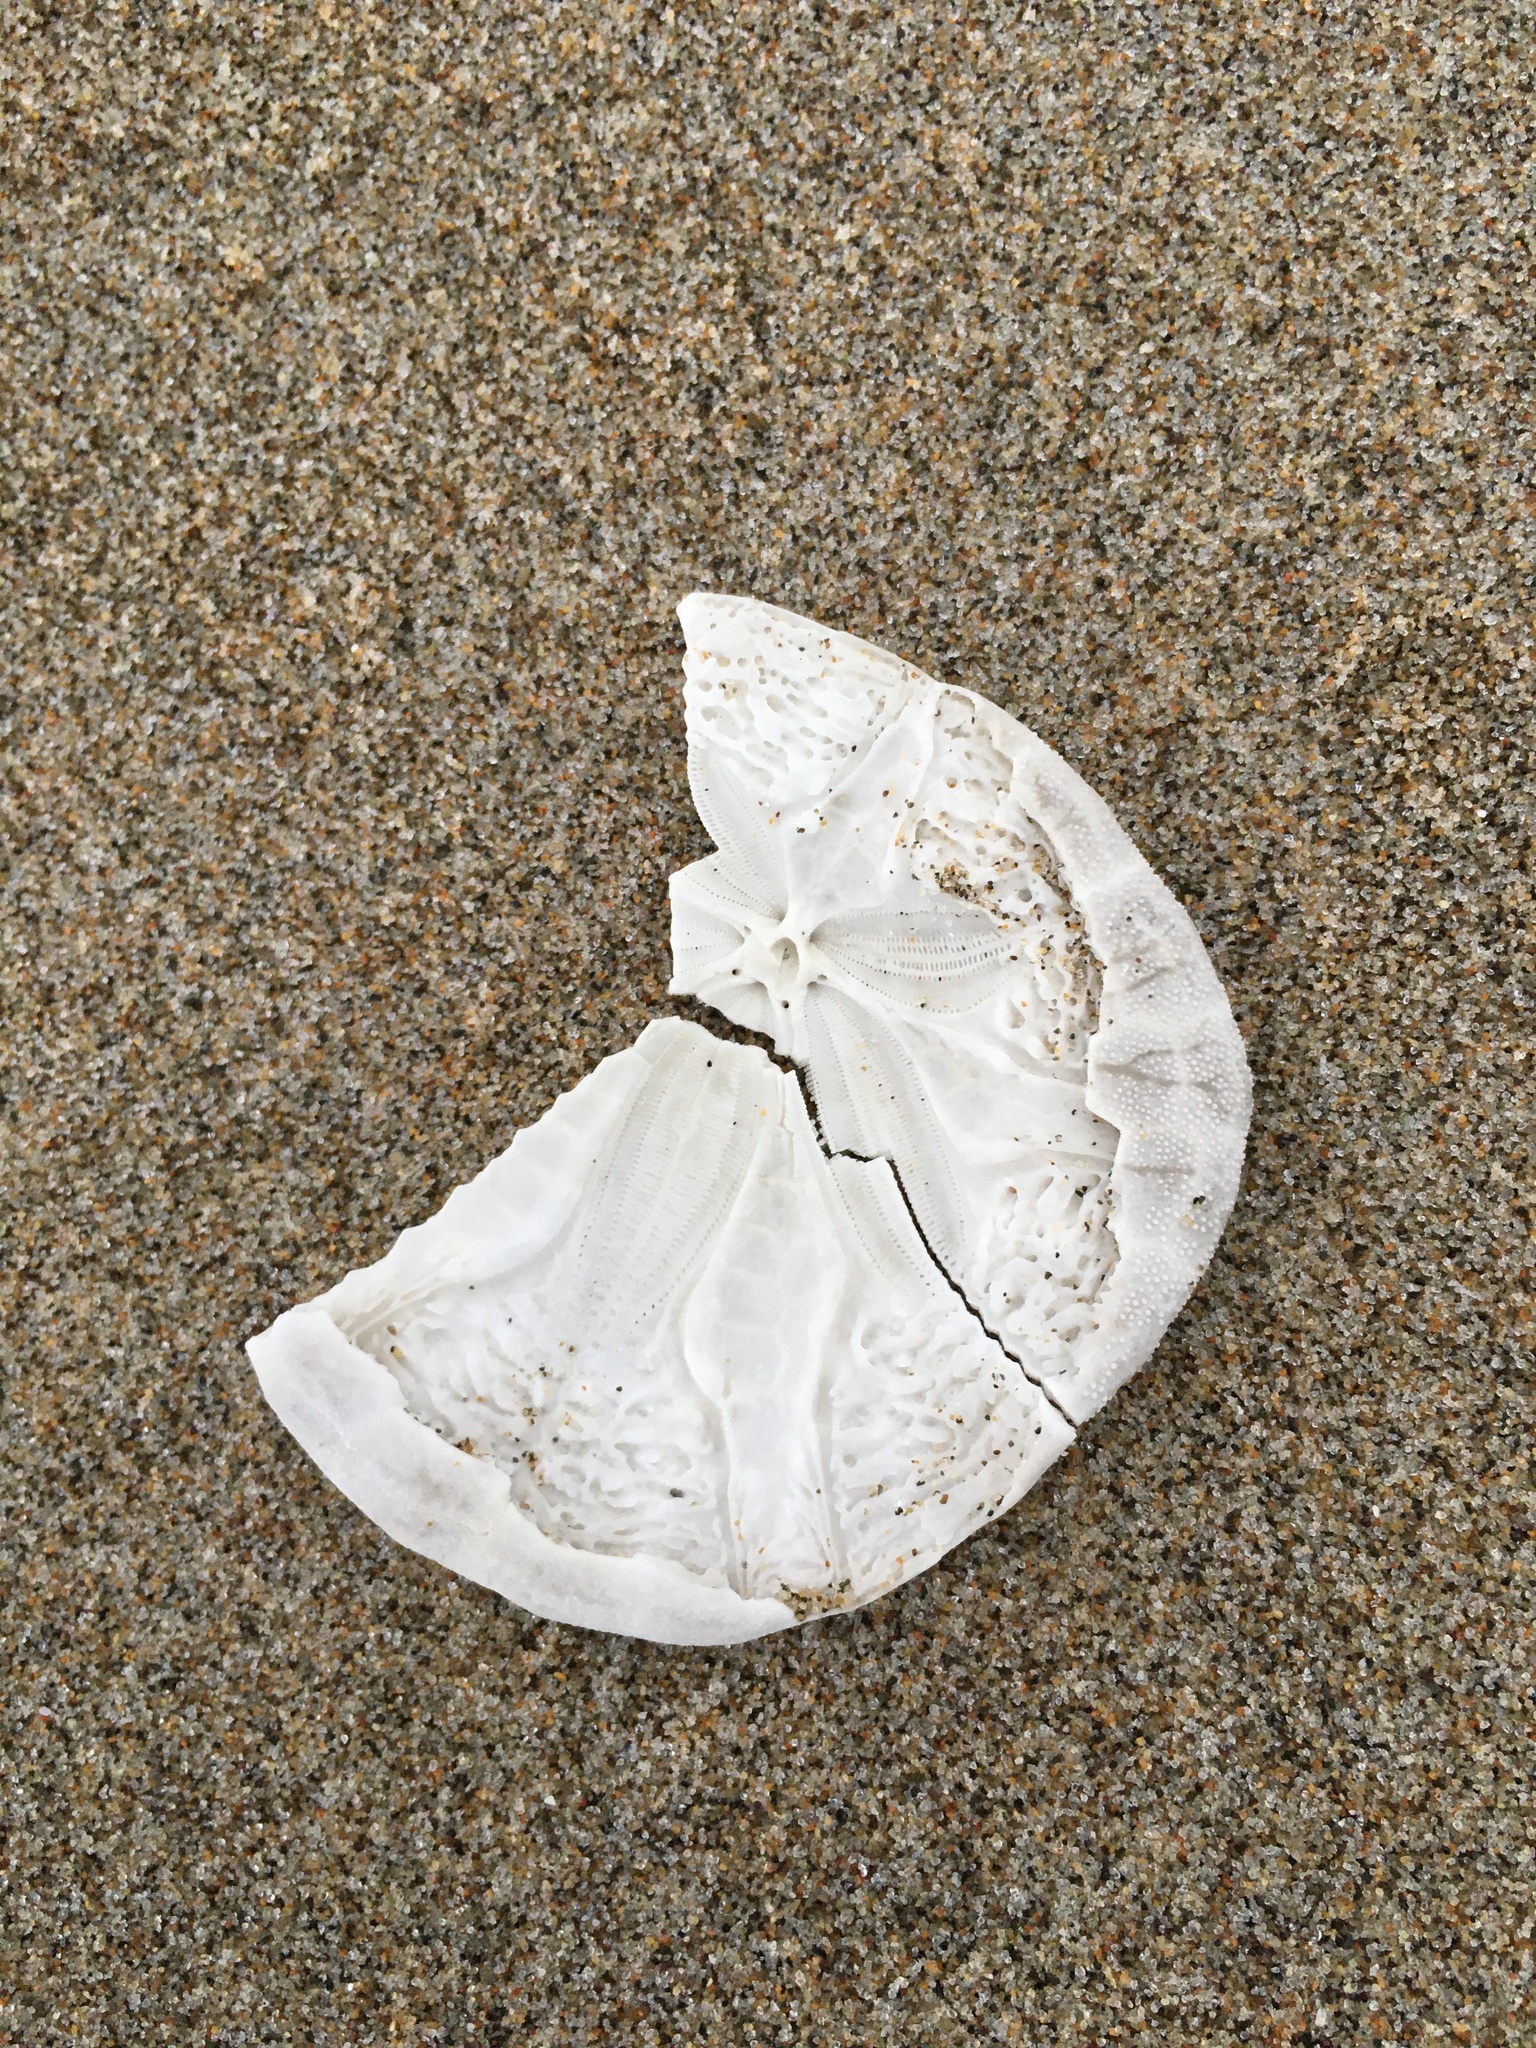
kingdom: Animalia
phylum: Echinodermata
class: Echinoidea
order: Echinolampadacea
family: Dendrasteridae
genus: Dendraster
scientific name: Dendraster excentricus
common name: Eccentric sand dollar sea urchin
